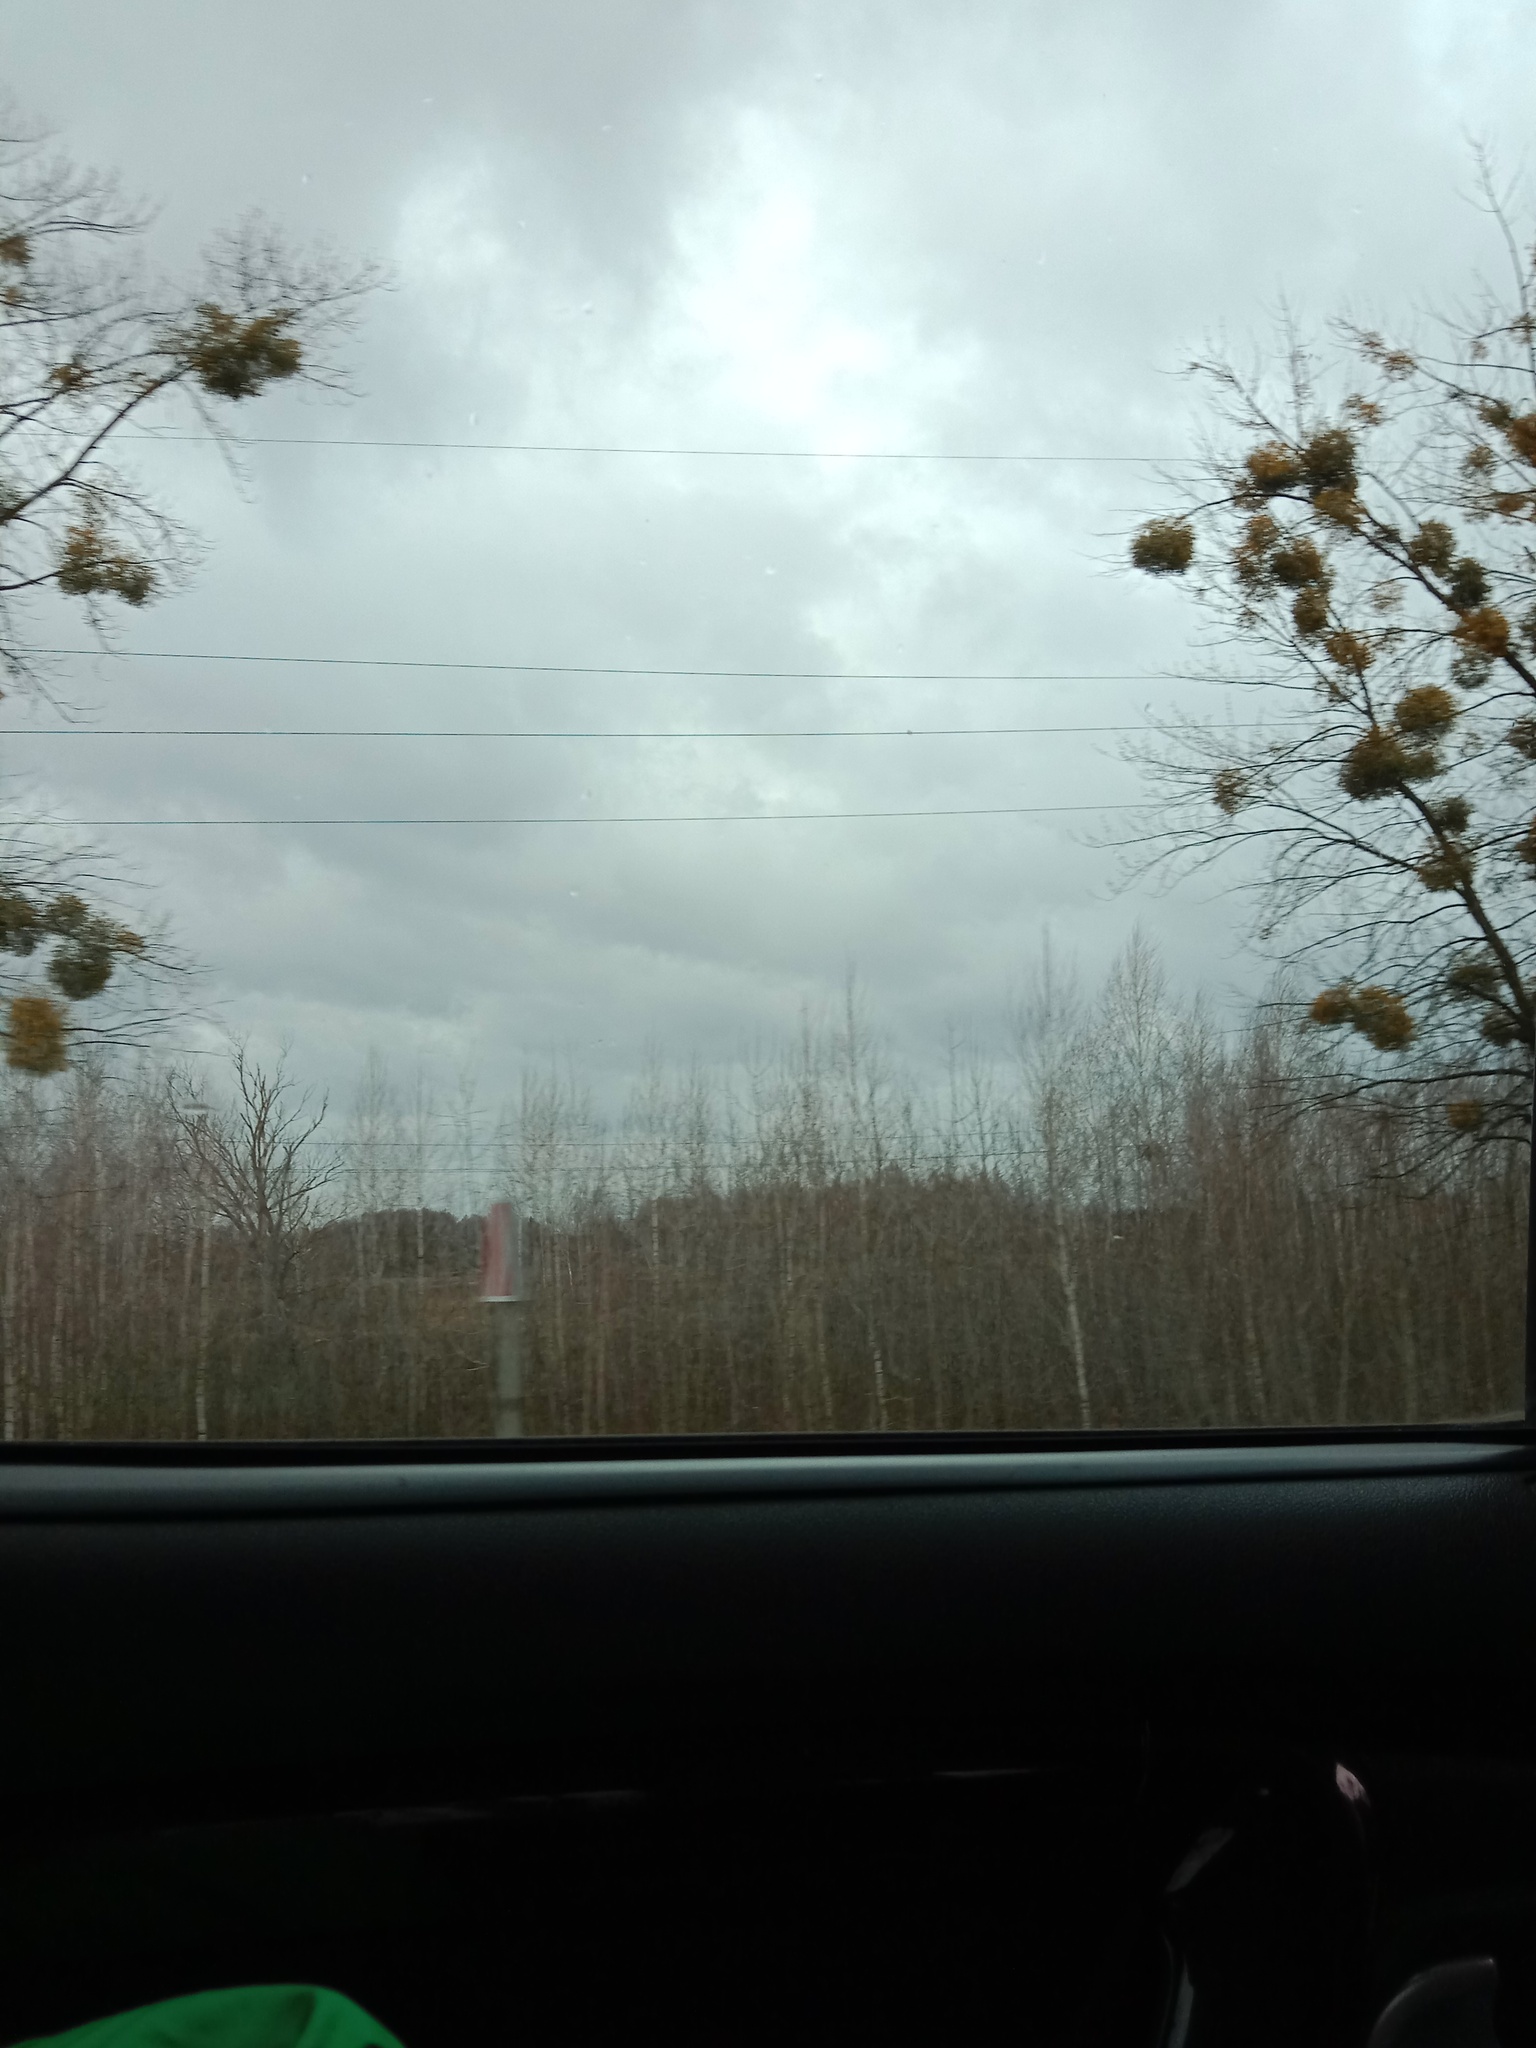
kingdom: Plantae
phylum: Tracheophyta
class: Magnoliopsida
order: Santalales
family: Viscaceae
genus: Viscum
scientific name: Viscum album
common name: Mistletoe
